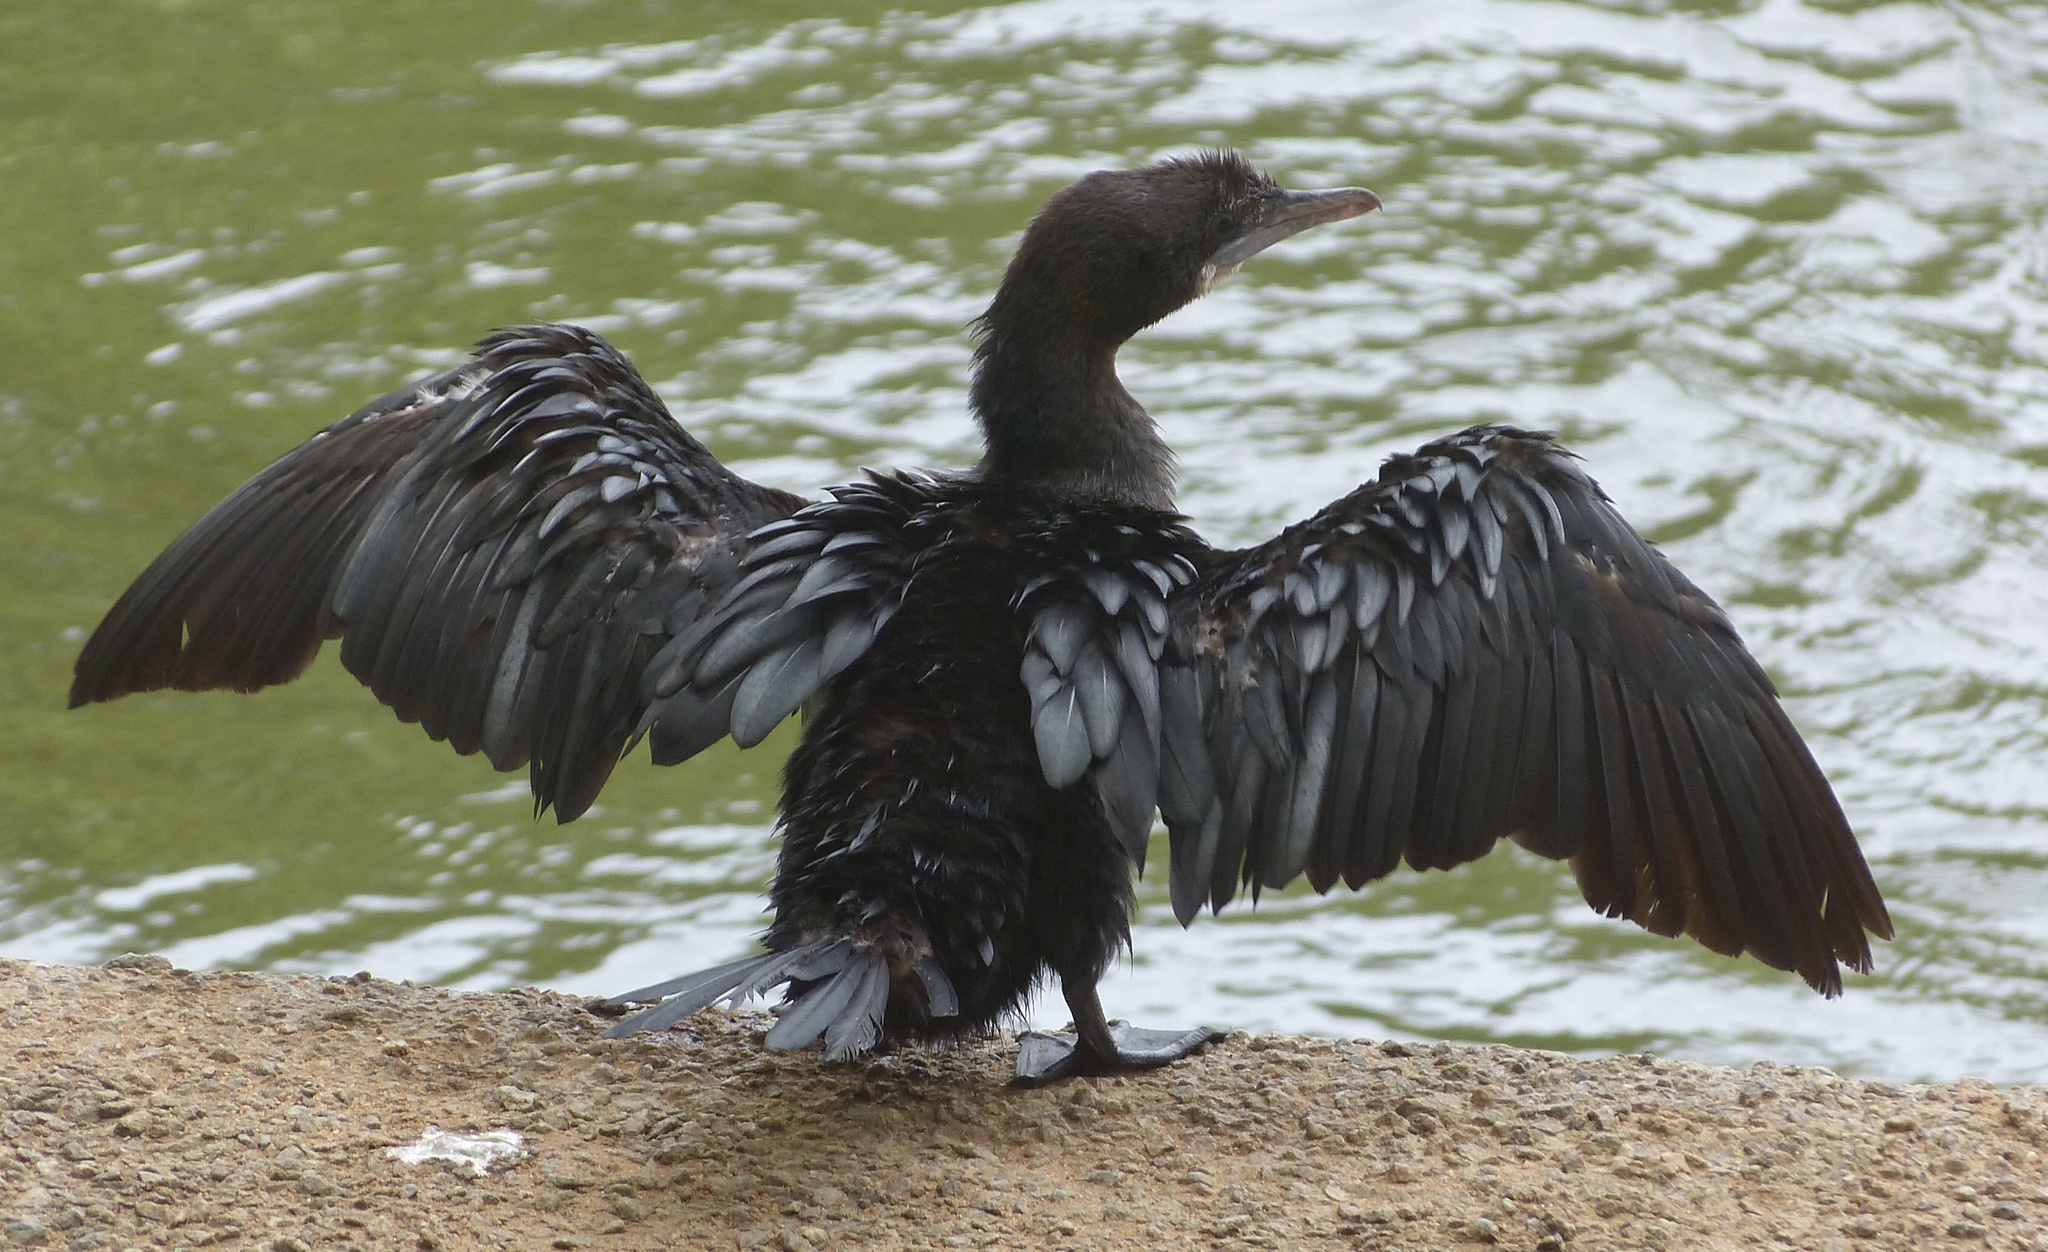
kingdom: Animalia
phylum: Chordata
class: Aves
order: Suliformes
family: Phalacrocoracidae
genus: Microcarbo
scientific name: Microcarbo niger
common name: Little cormorant
